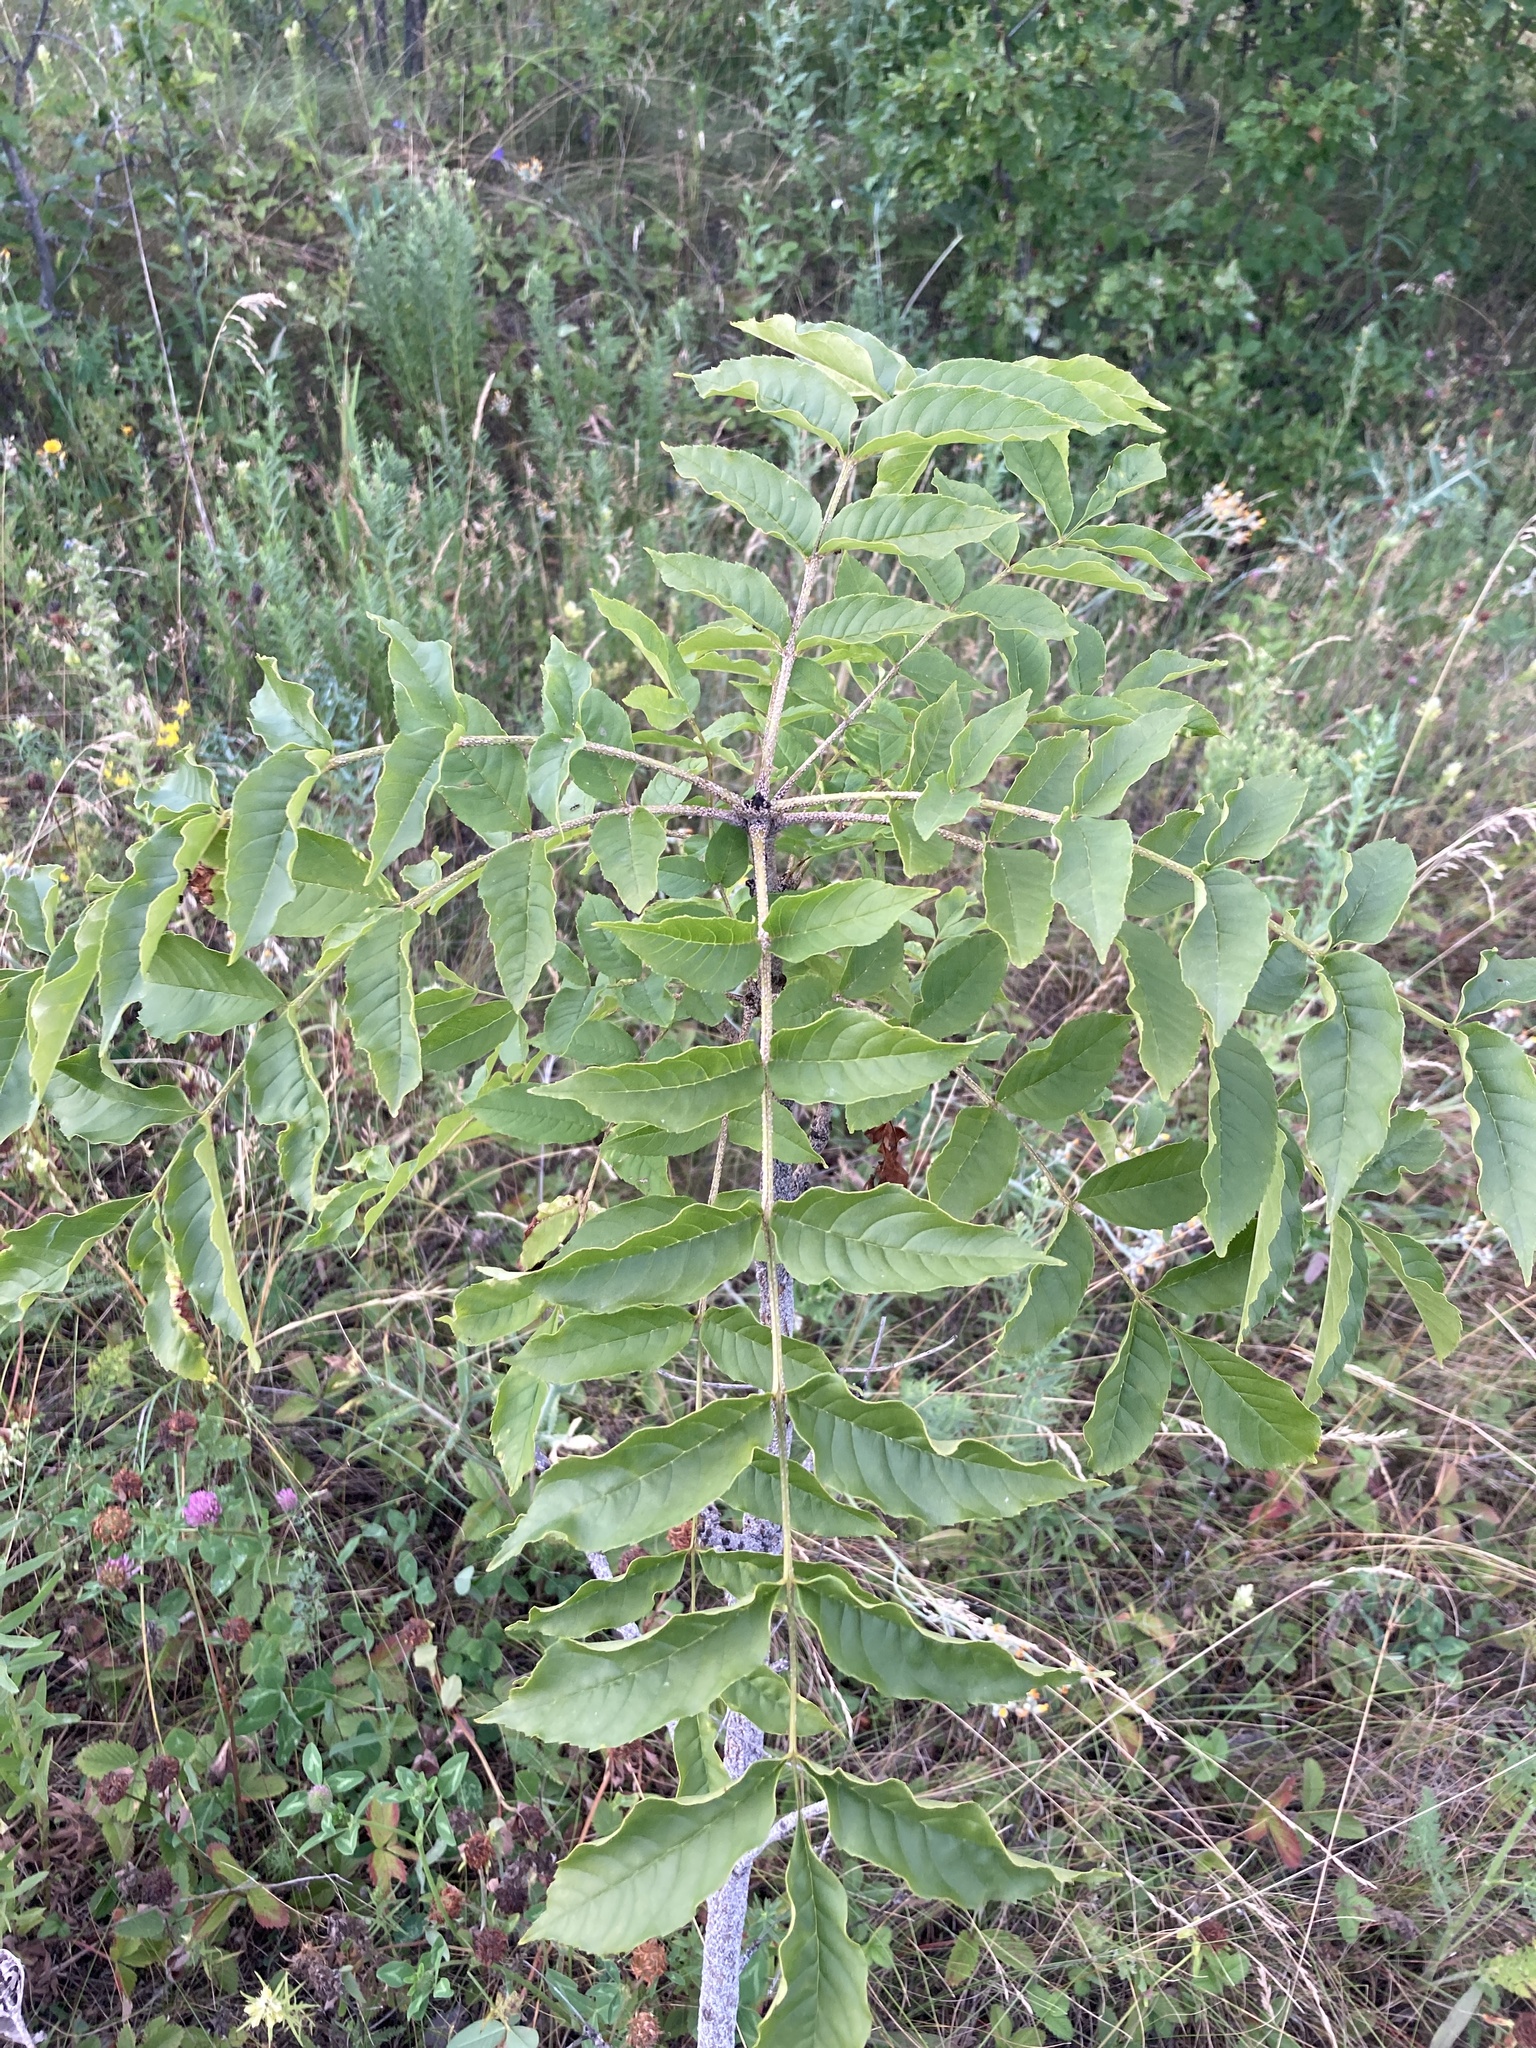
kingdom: Plantae
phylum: Tracheophyta
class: Magnoliopsida
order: Lamiales
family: Oleaceae
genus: Fraxinus
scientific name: Fraxinus excelsior
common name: European ash
